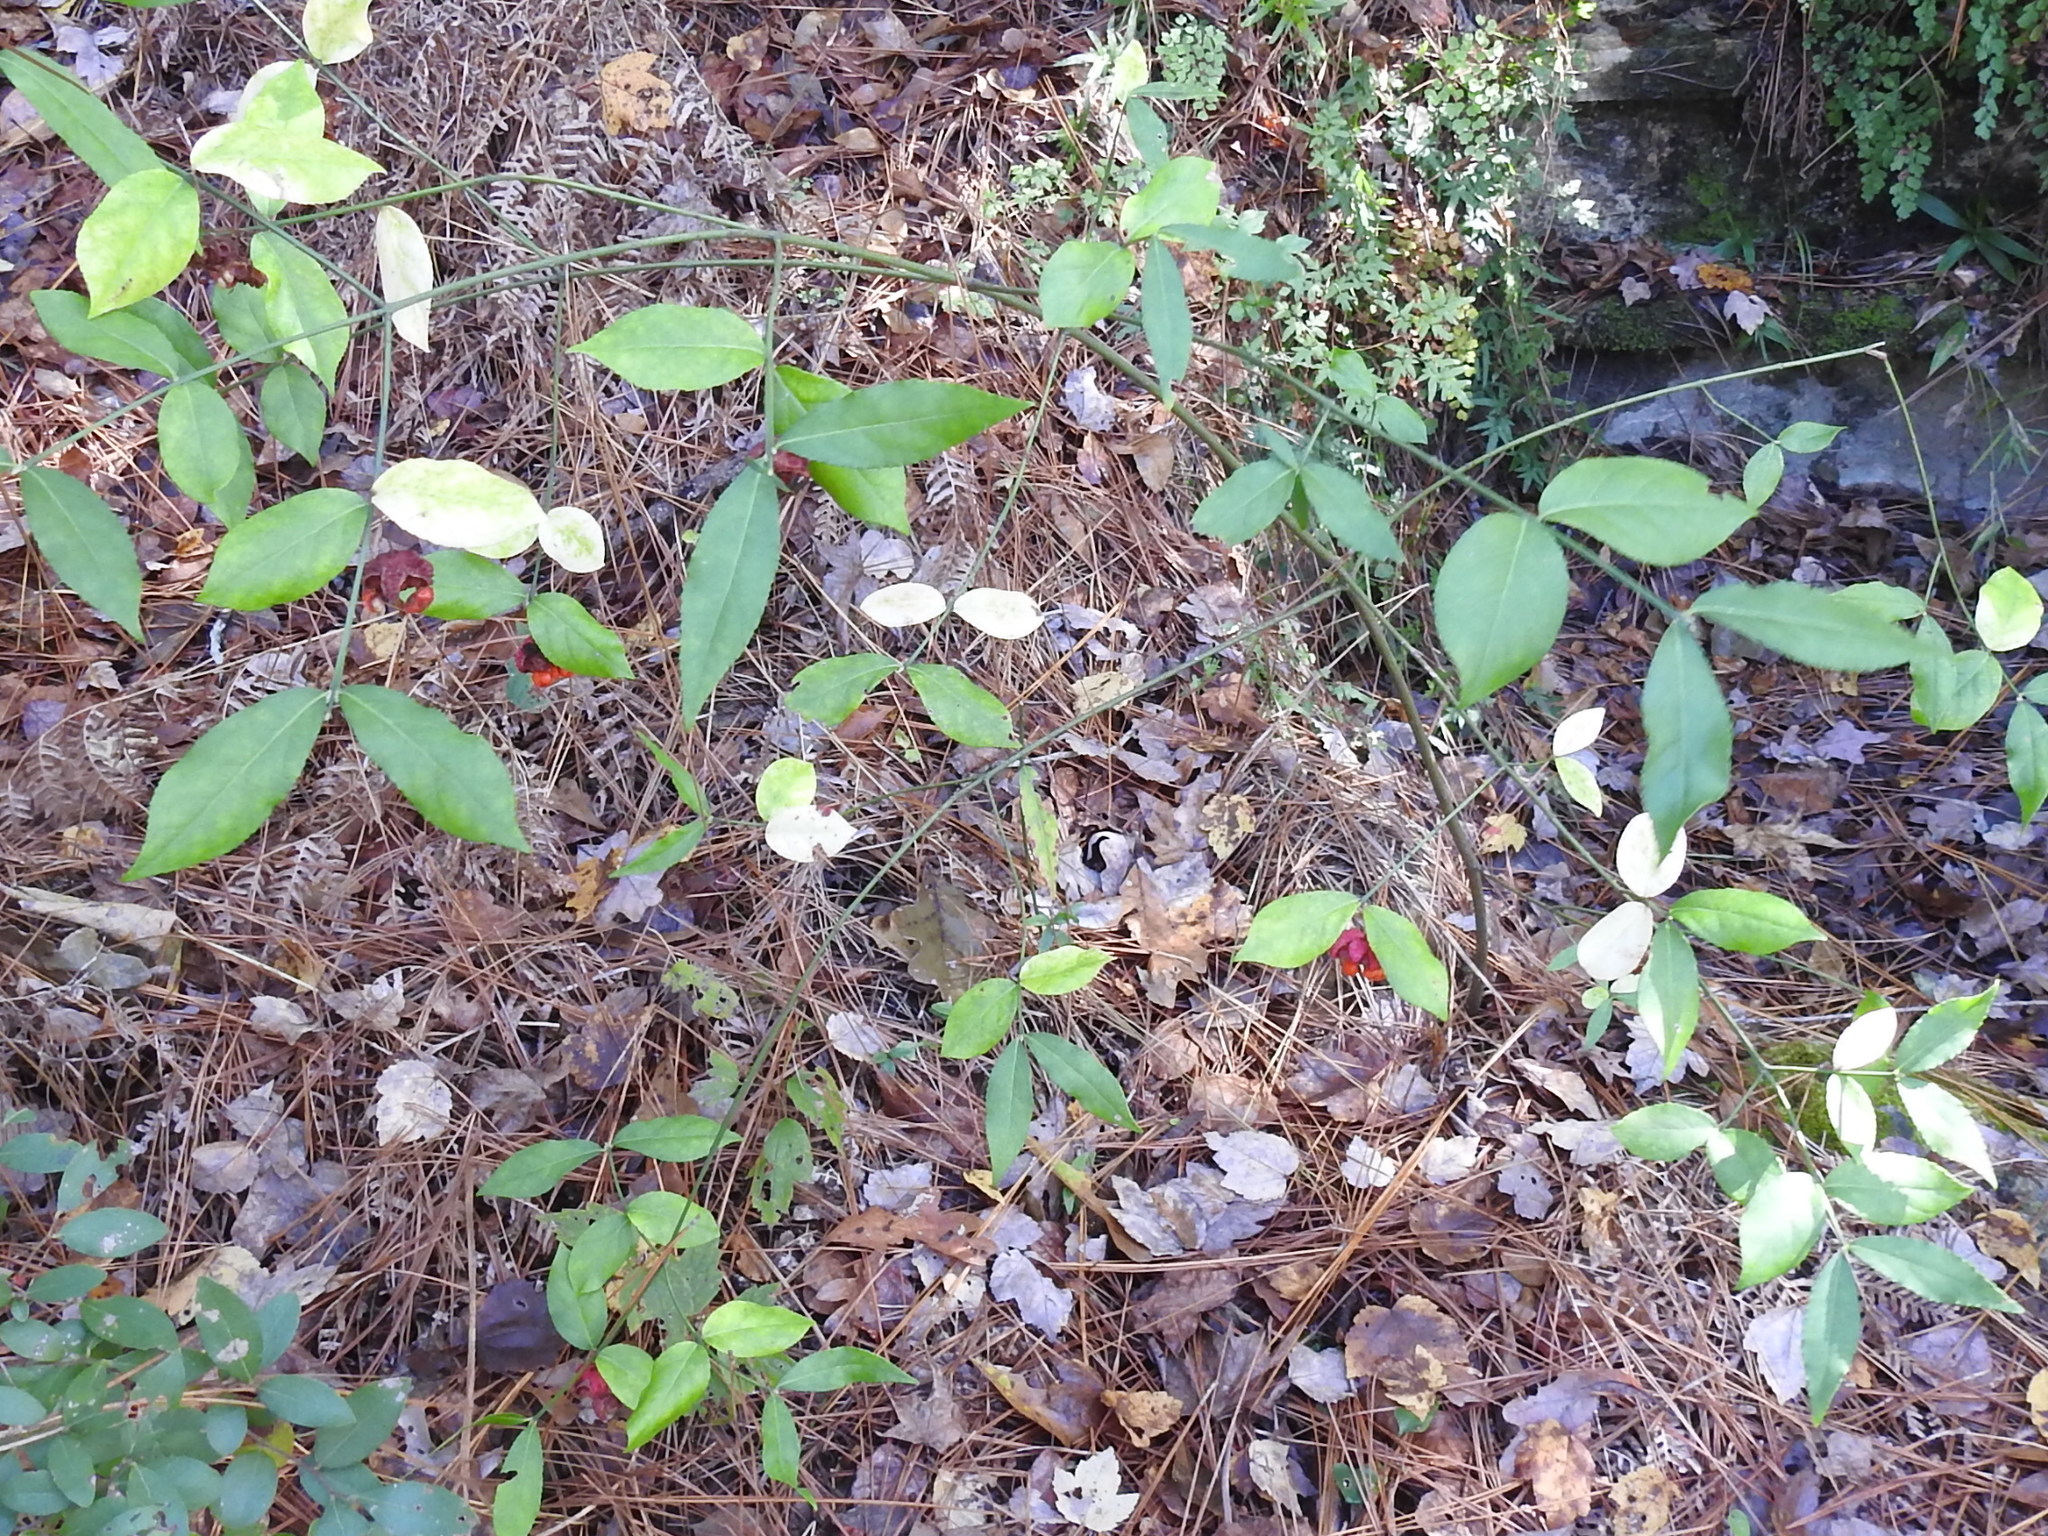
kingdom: Plantae
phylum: Tracheophyta
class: Magnoliopsida
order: Celastrales
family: Celastraceae
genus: Euonymus
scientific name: Euonymus americanus
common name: Bursting-heart
